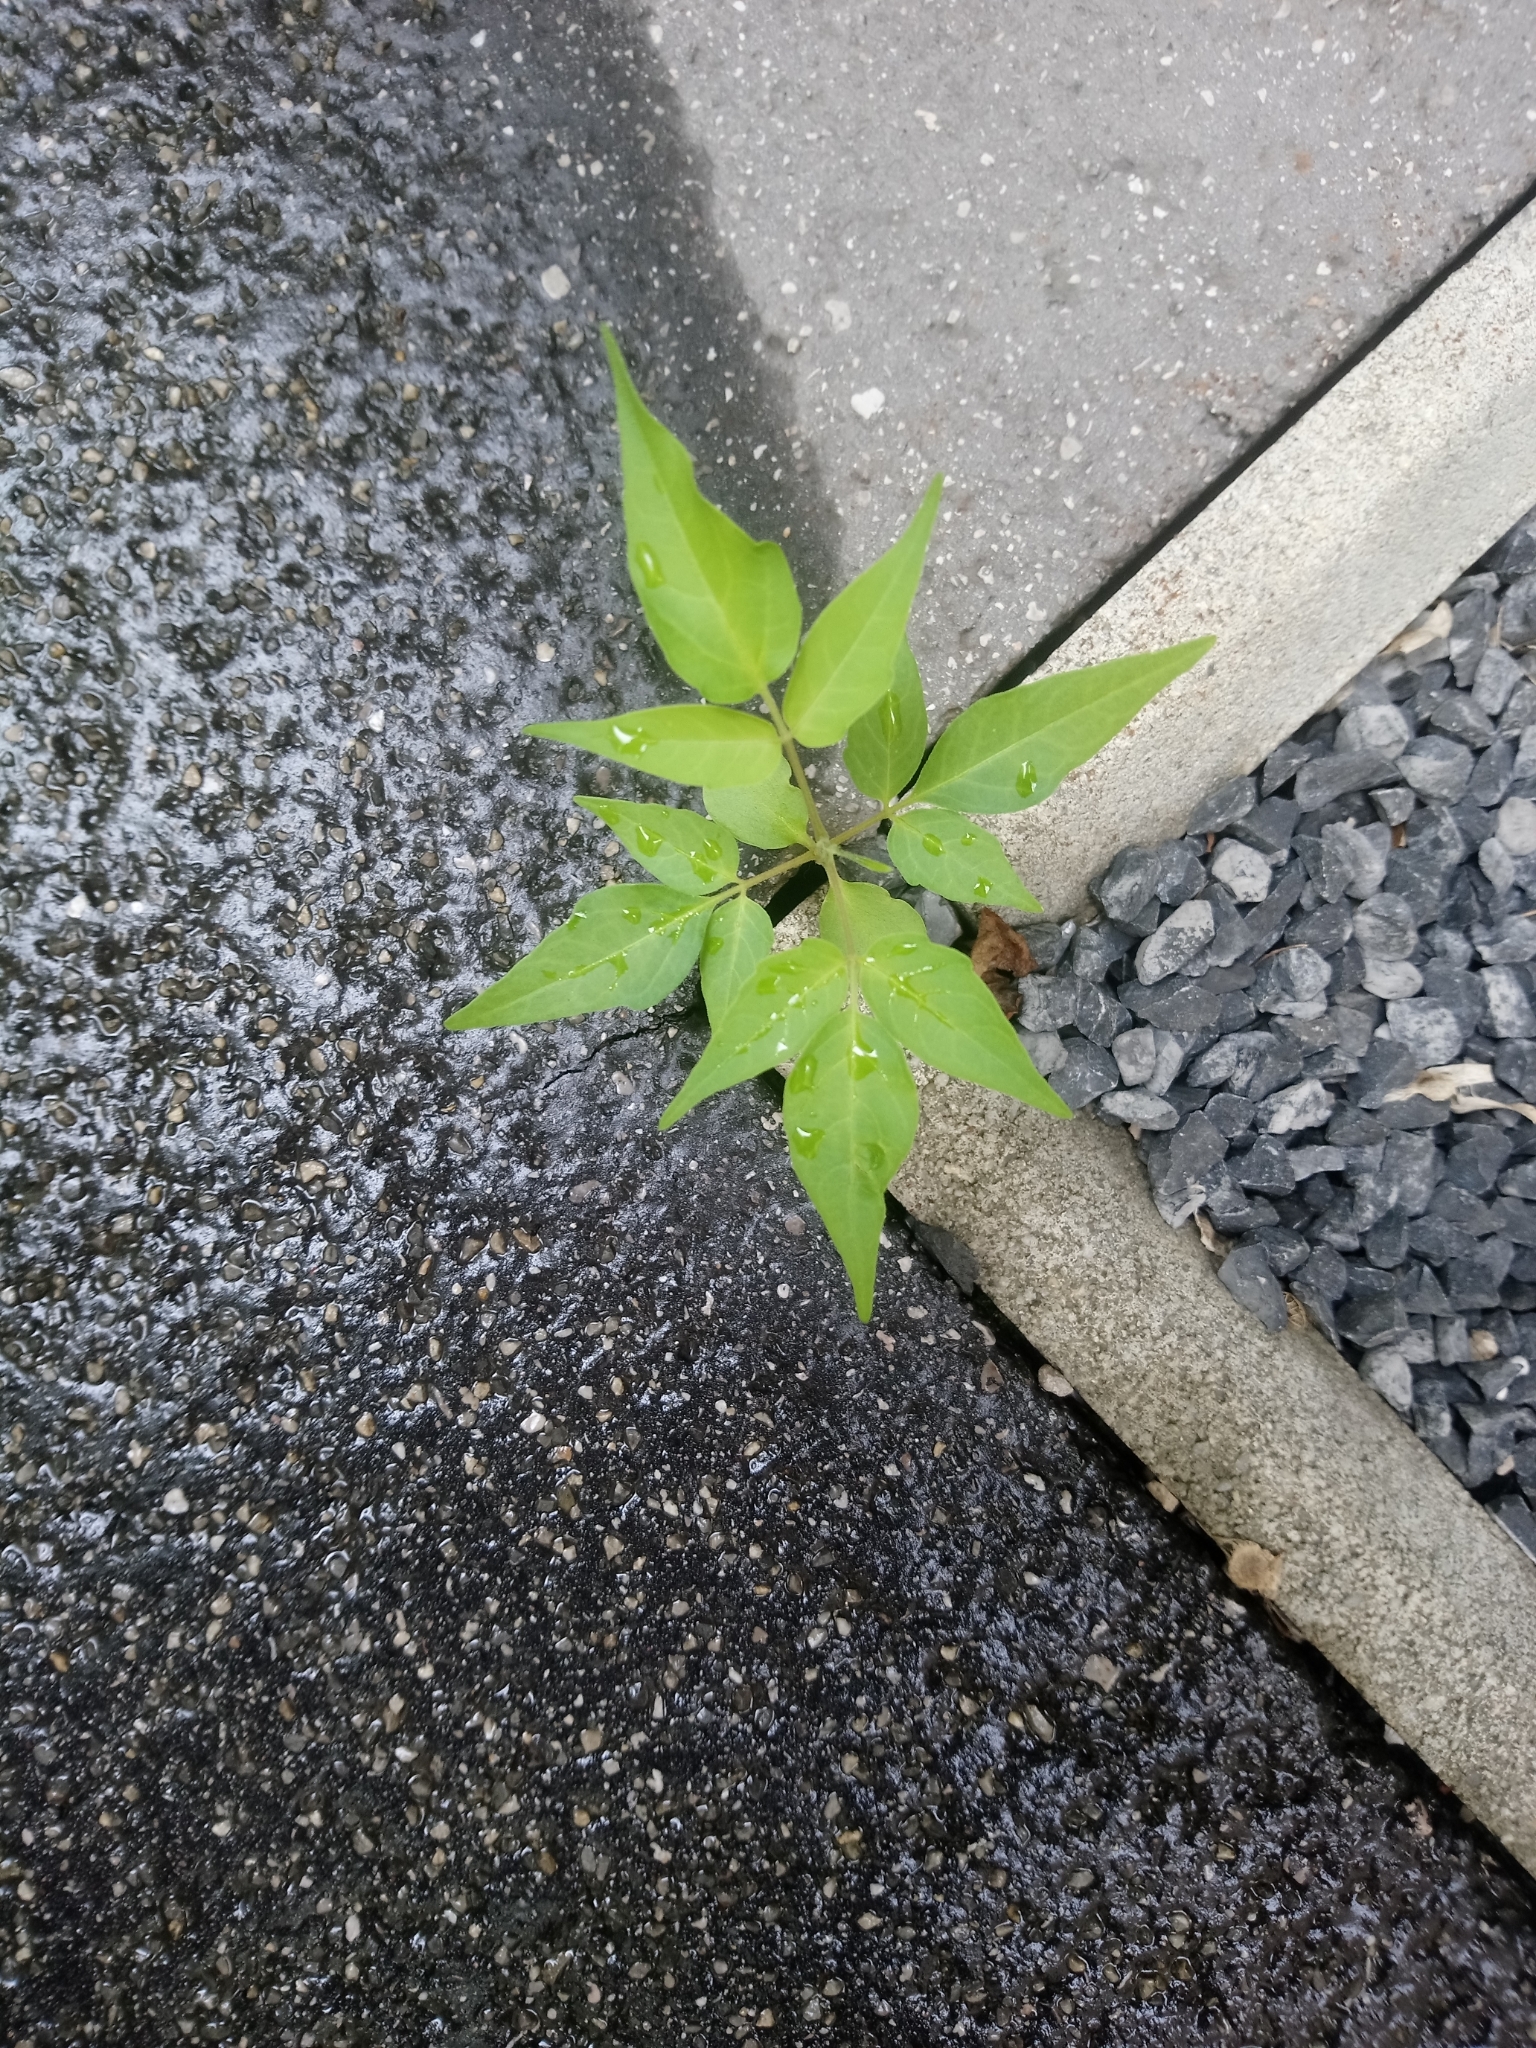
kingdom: Plantae
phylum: Tracheophyta
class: Magnoliopsida
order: Sapindales
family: Simaroubaceae
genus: Ailanthus
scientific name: Ailanthus altissima
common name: Tree-of-heaven
